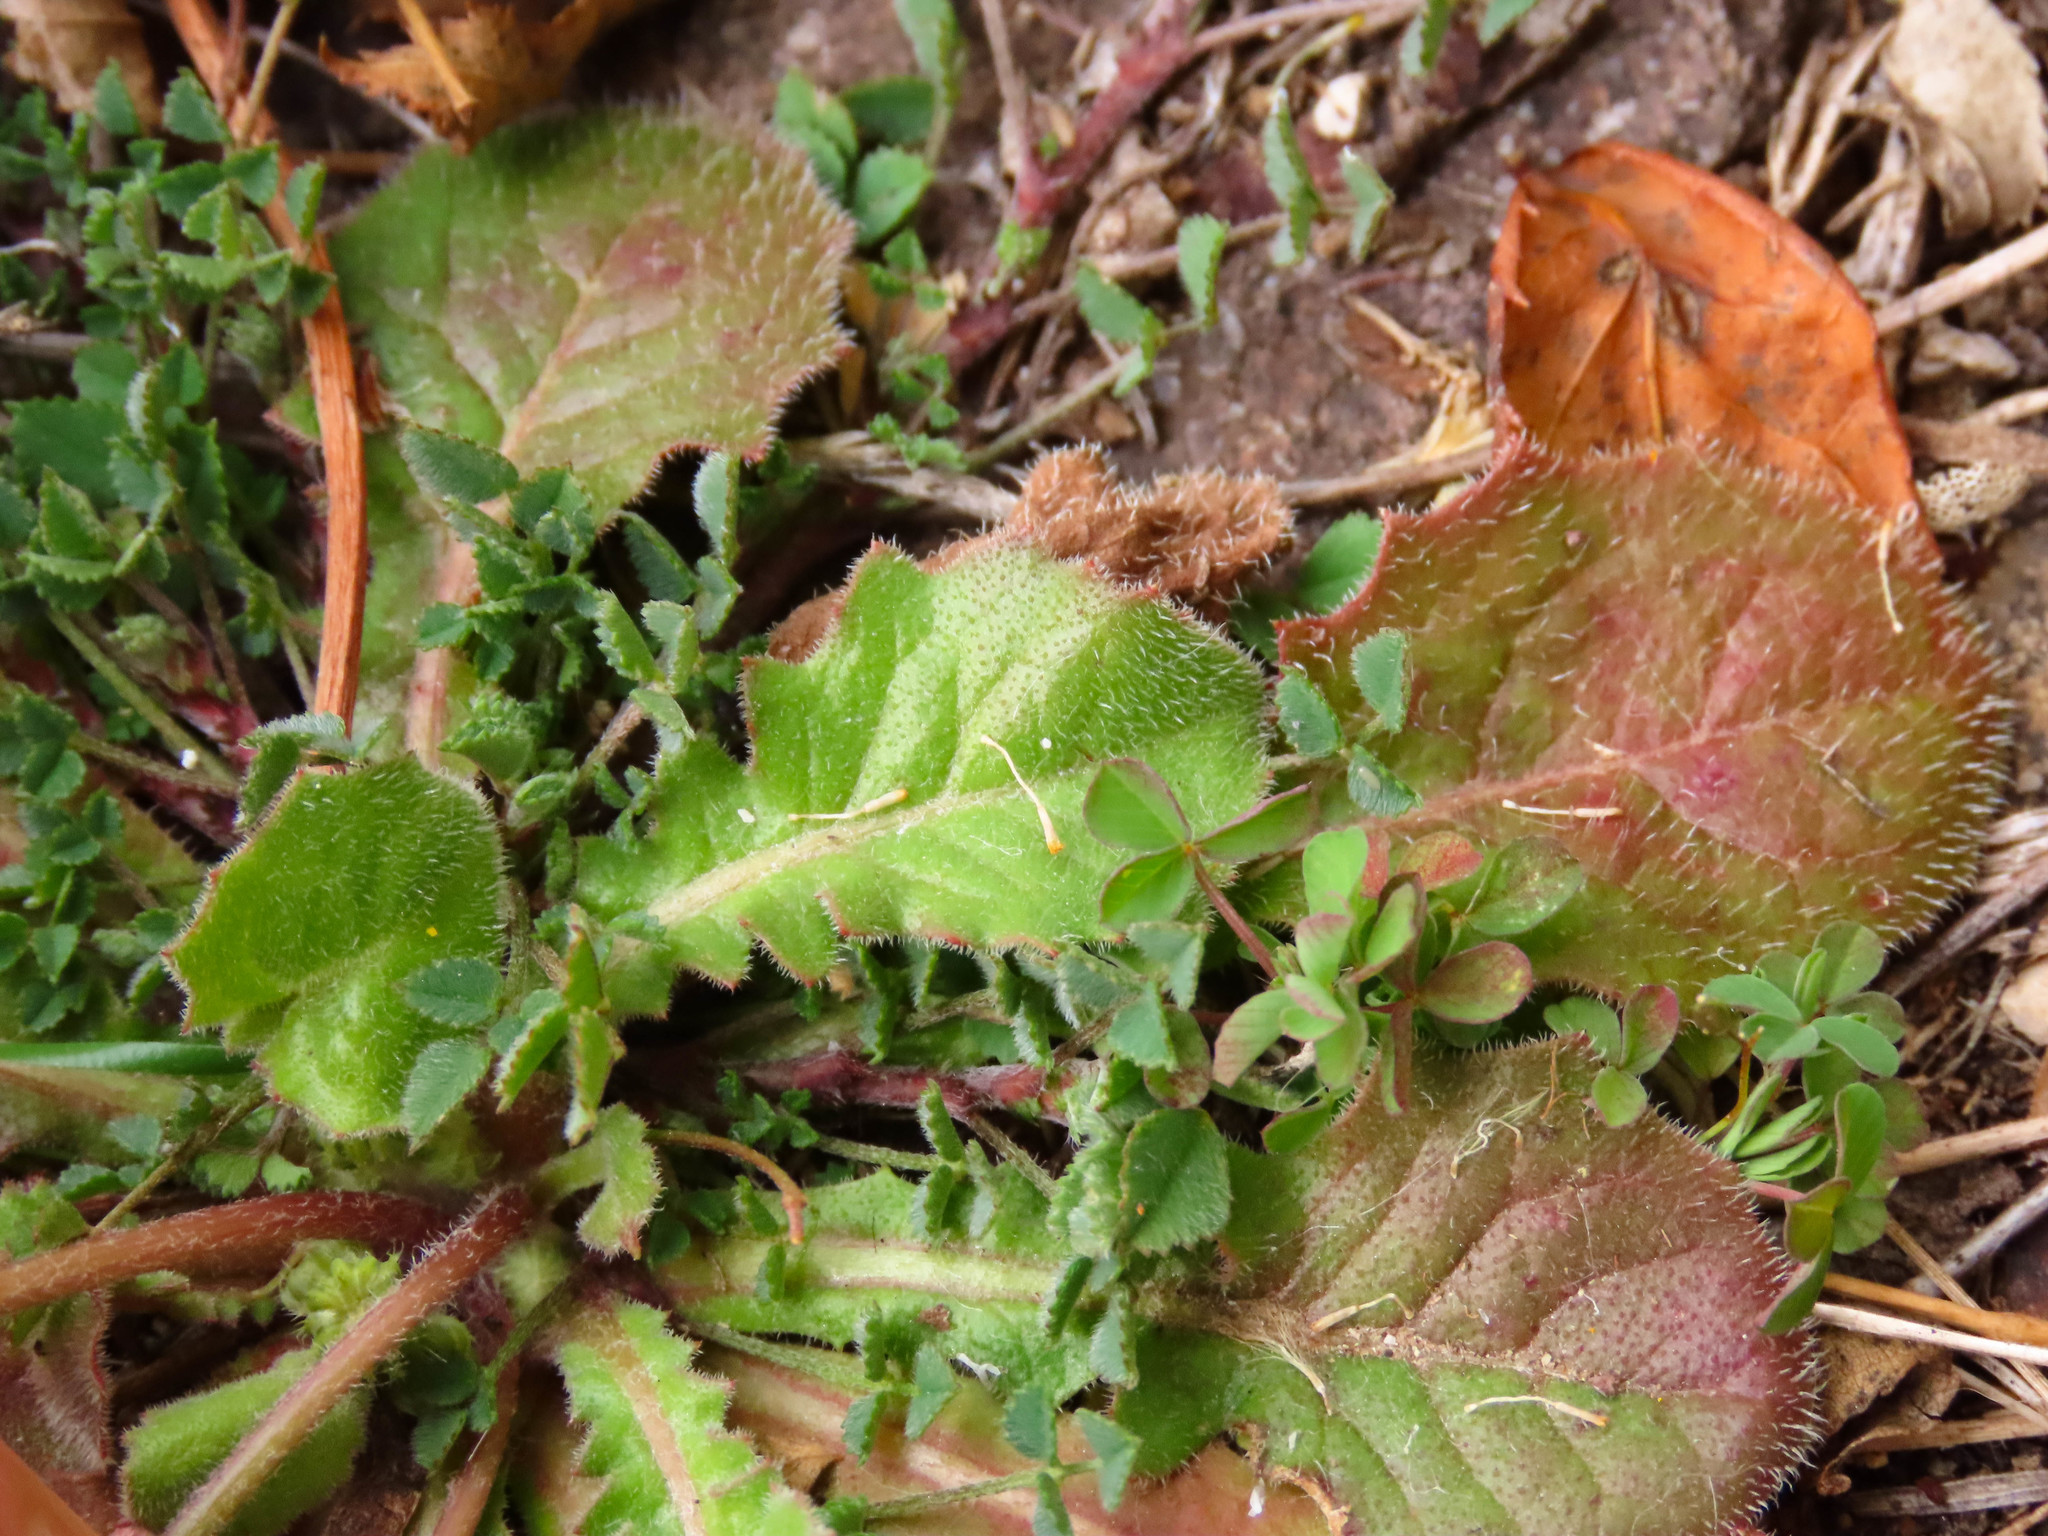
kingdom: Plantae
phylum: Tracheophyta
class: Magnoliopsida
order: Asterales
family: Asteraceae
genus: Crepis
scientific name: Crepis sancta
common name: Hawk's-beard
